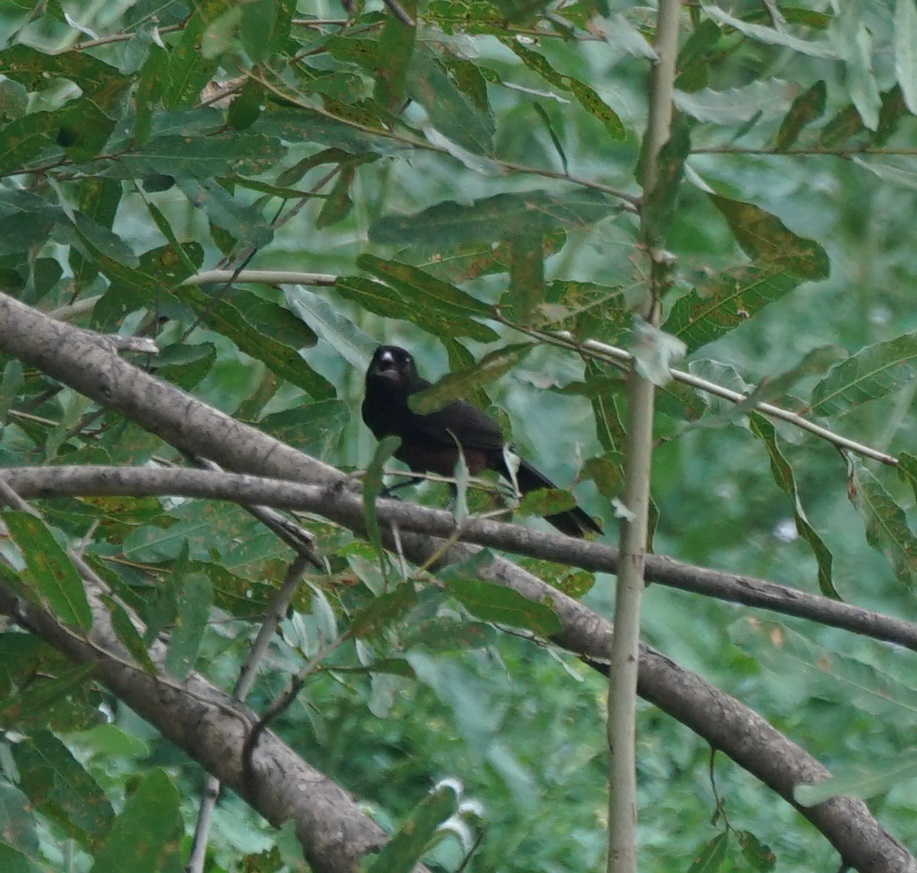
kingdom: Animalia
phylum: Chordata
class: Aves
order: Passeriformes
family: Thraupidae
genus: Ramphocelus
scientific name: Ramphocelus carbo
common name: Silver-beaked tanager
